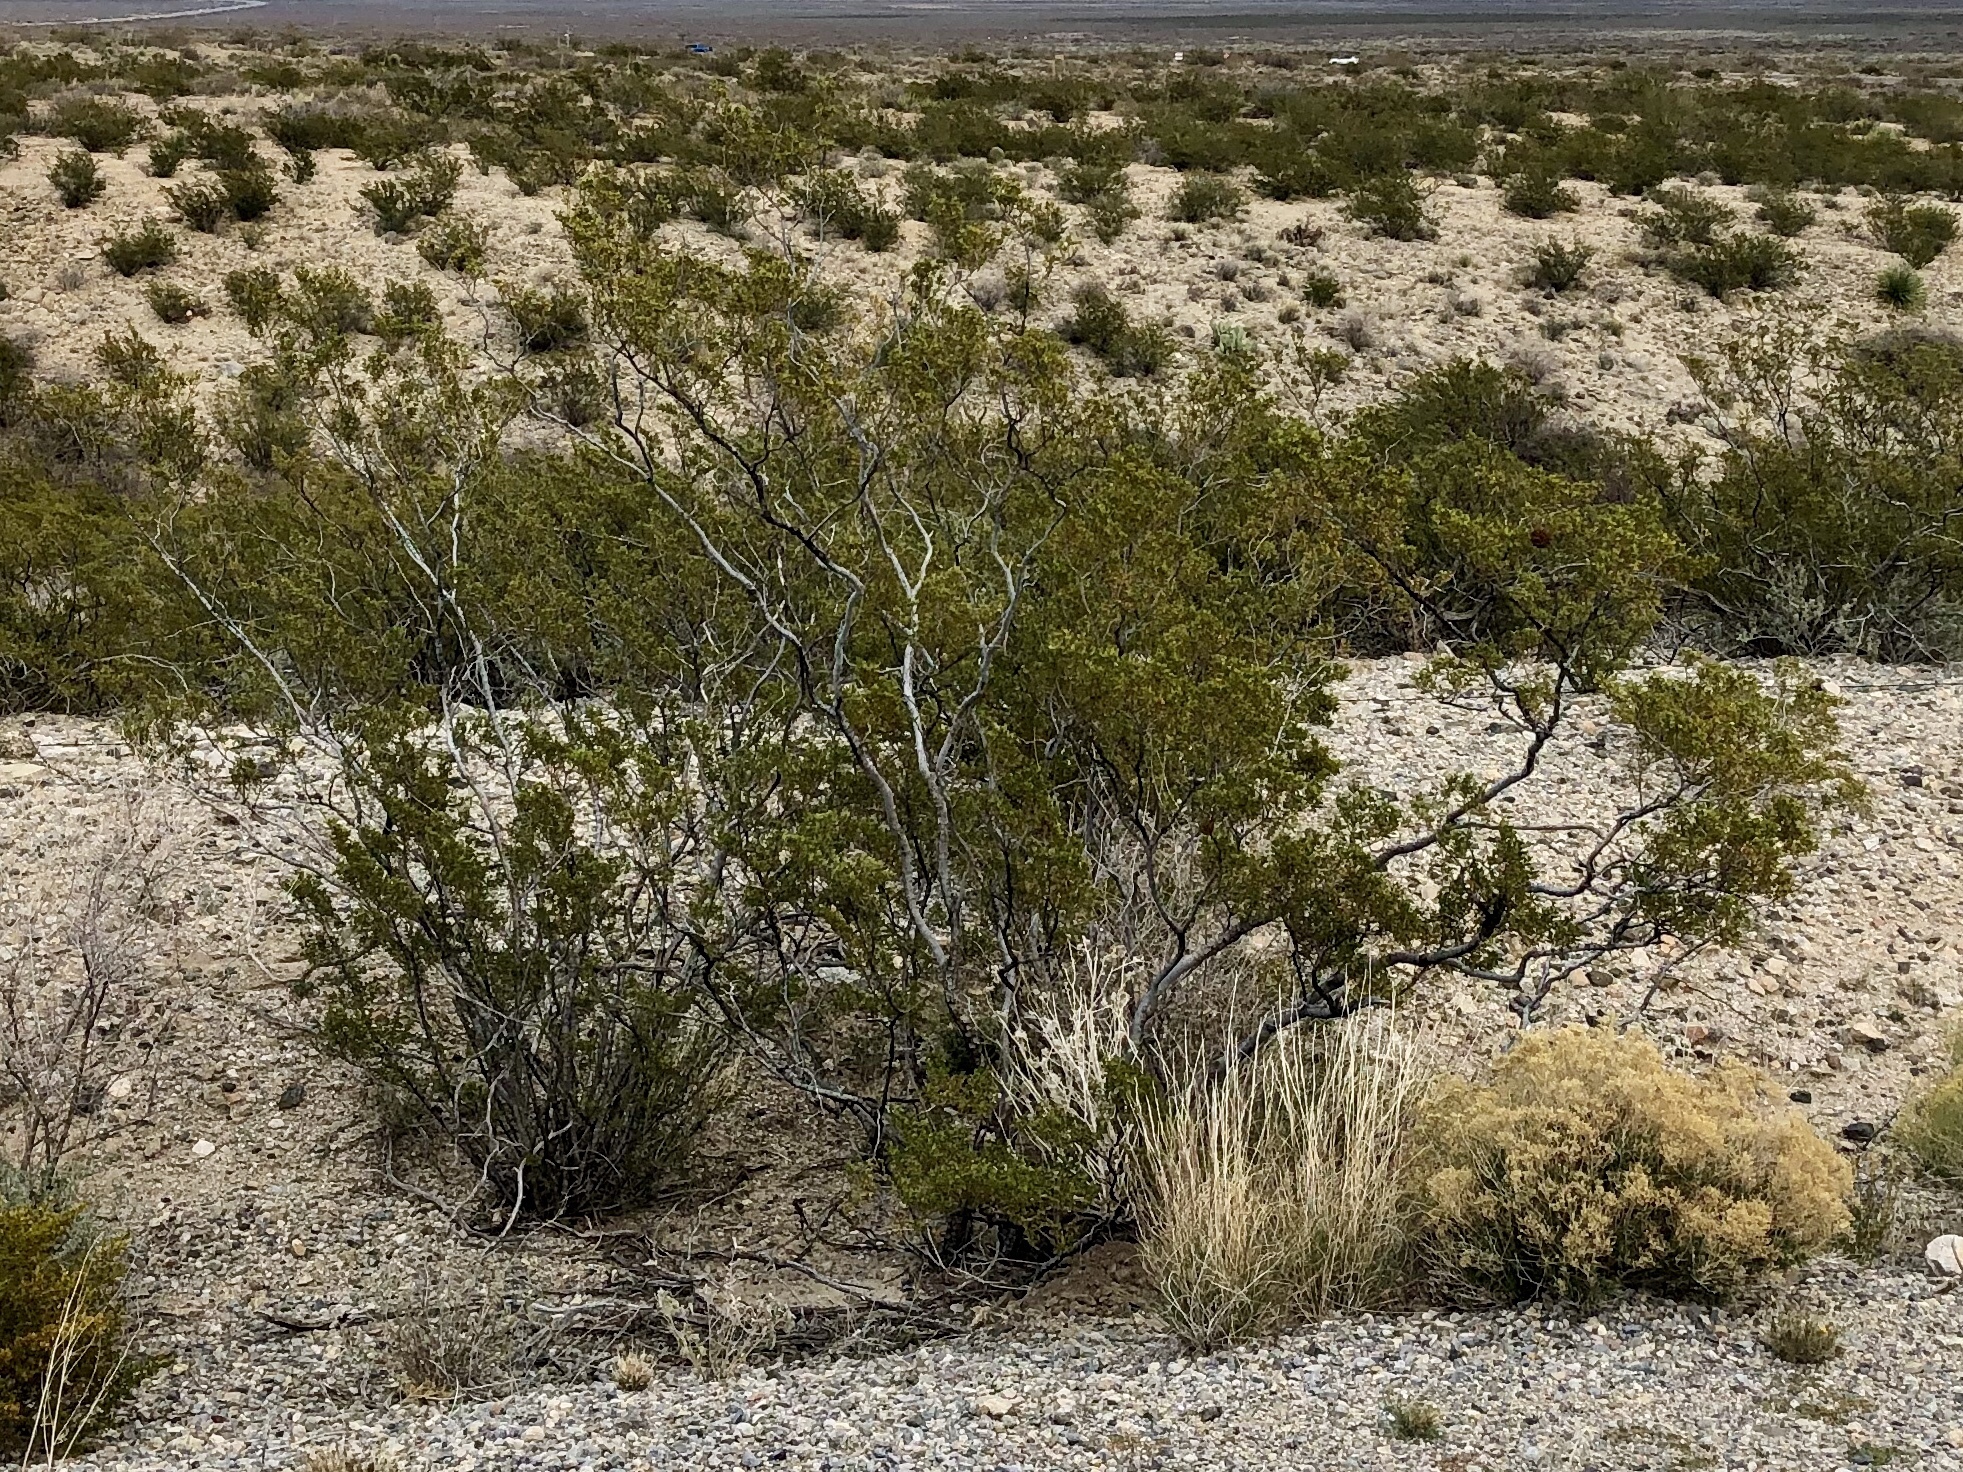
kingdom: Plantae
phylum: Tracheophyta
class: Magnoliopsida
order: Zygophyllales
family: Zygophyllaceae
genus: Larrea
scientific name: Larrea tridentata
